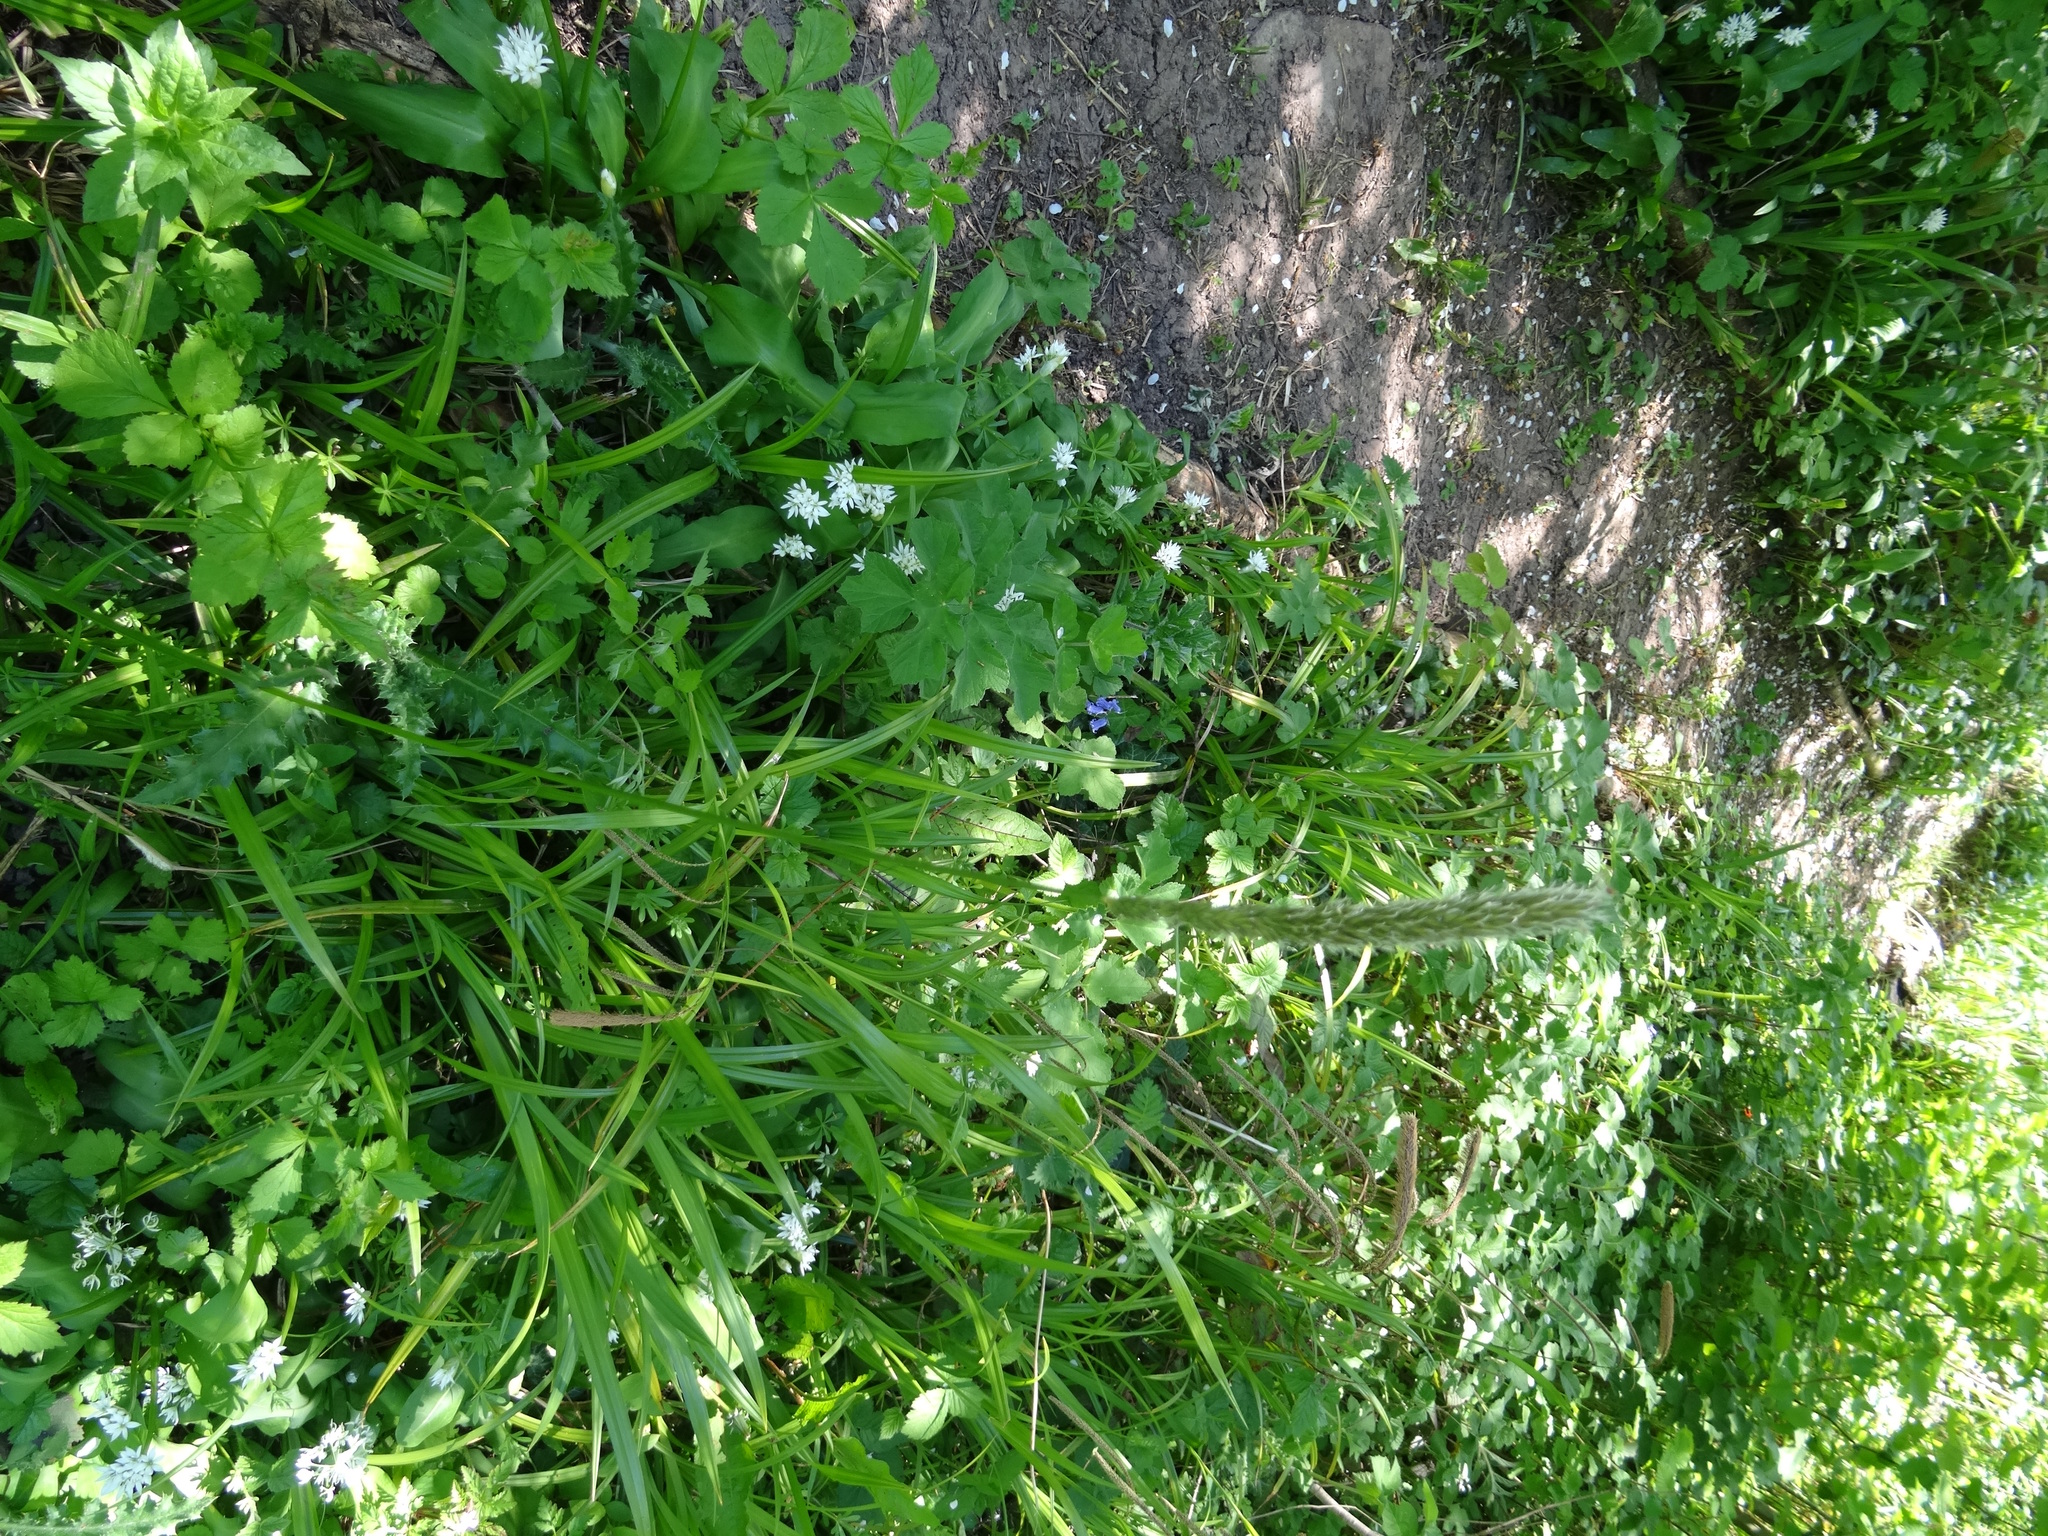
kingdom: Plantae
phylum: Tracheophyta
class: Liliopsida
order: Poales
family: Poaceae
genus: Alopecurus
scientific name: Alopecurus pratensis
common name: Meadow foxtail
